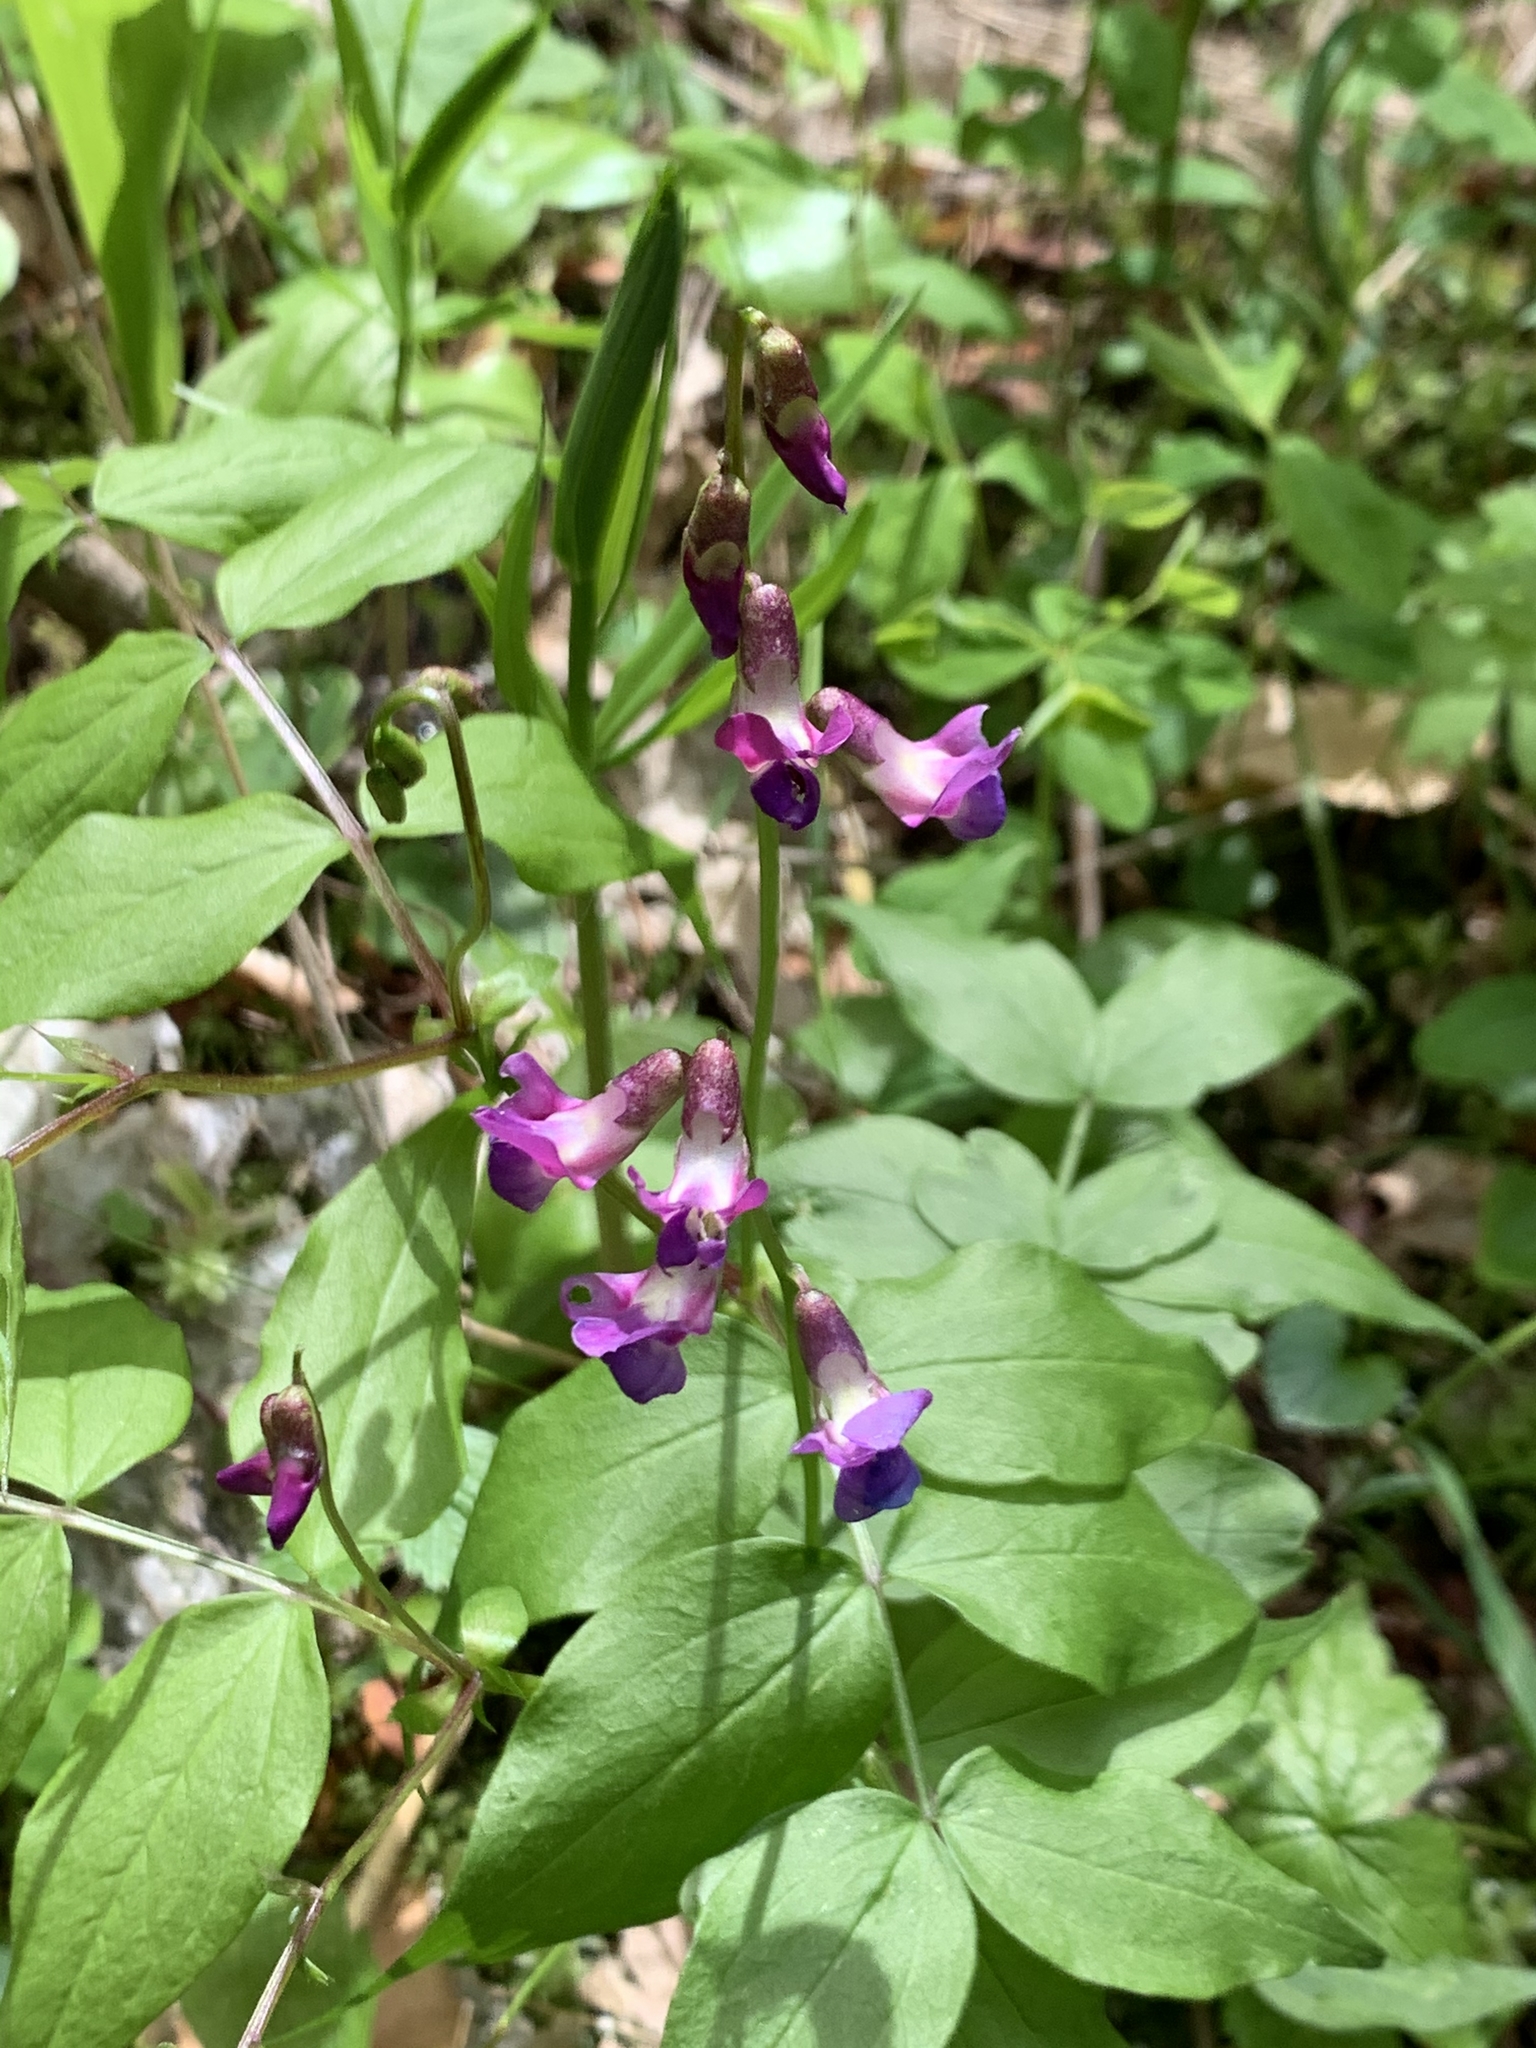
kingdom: Plantae
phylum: Tracheophyta
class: Magnoliopsida
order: Fabales
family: Fabaceae
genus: Lathyrus
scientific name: Lathyrus vernus
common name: Spring pea
